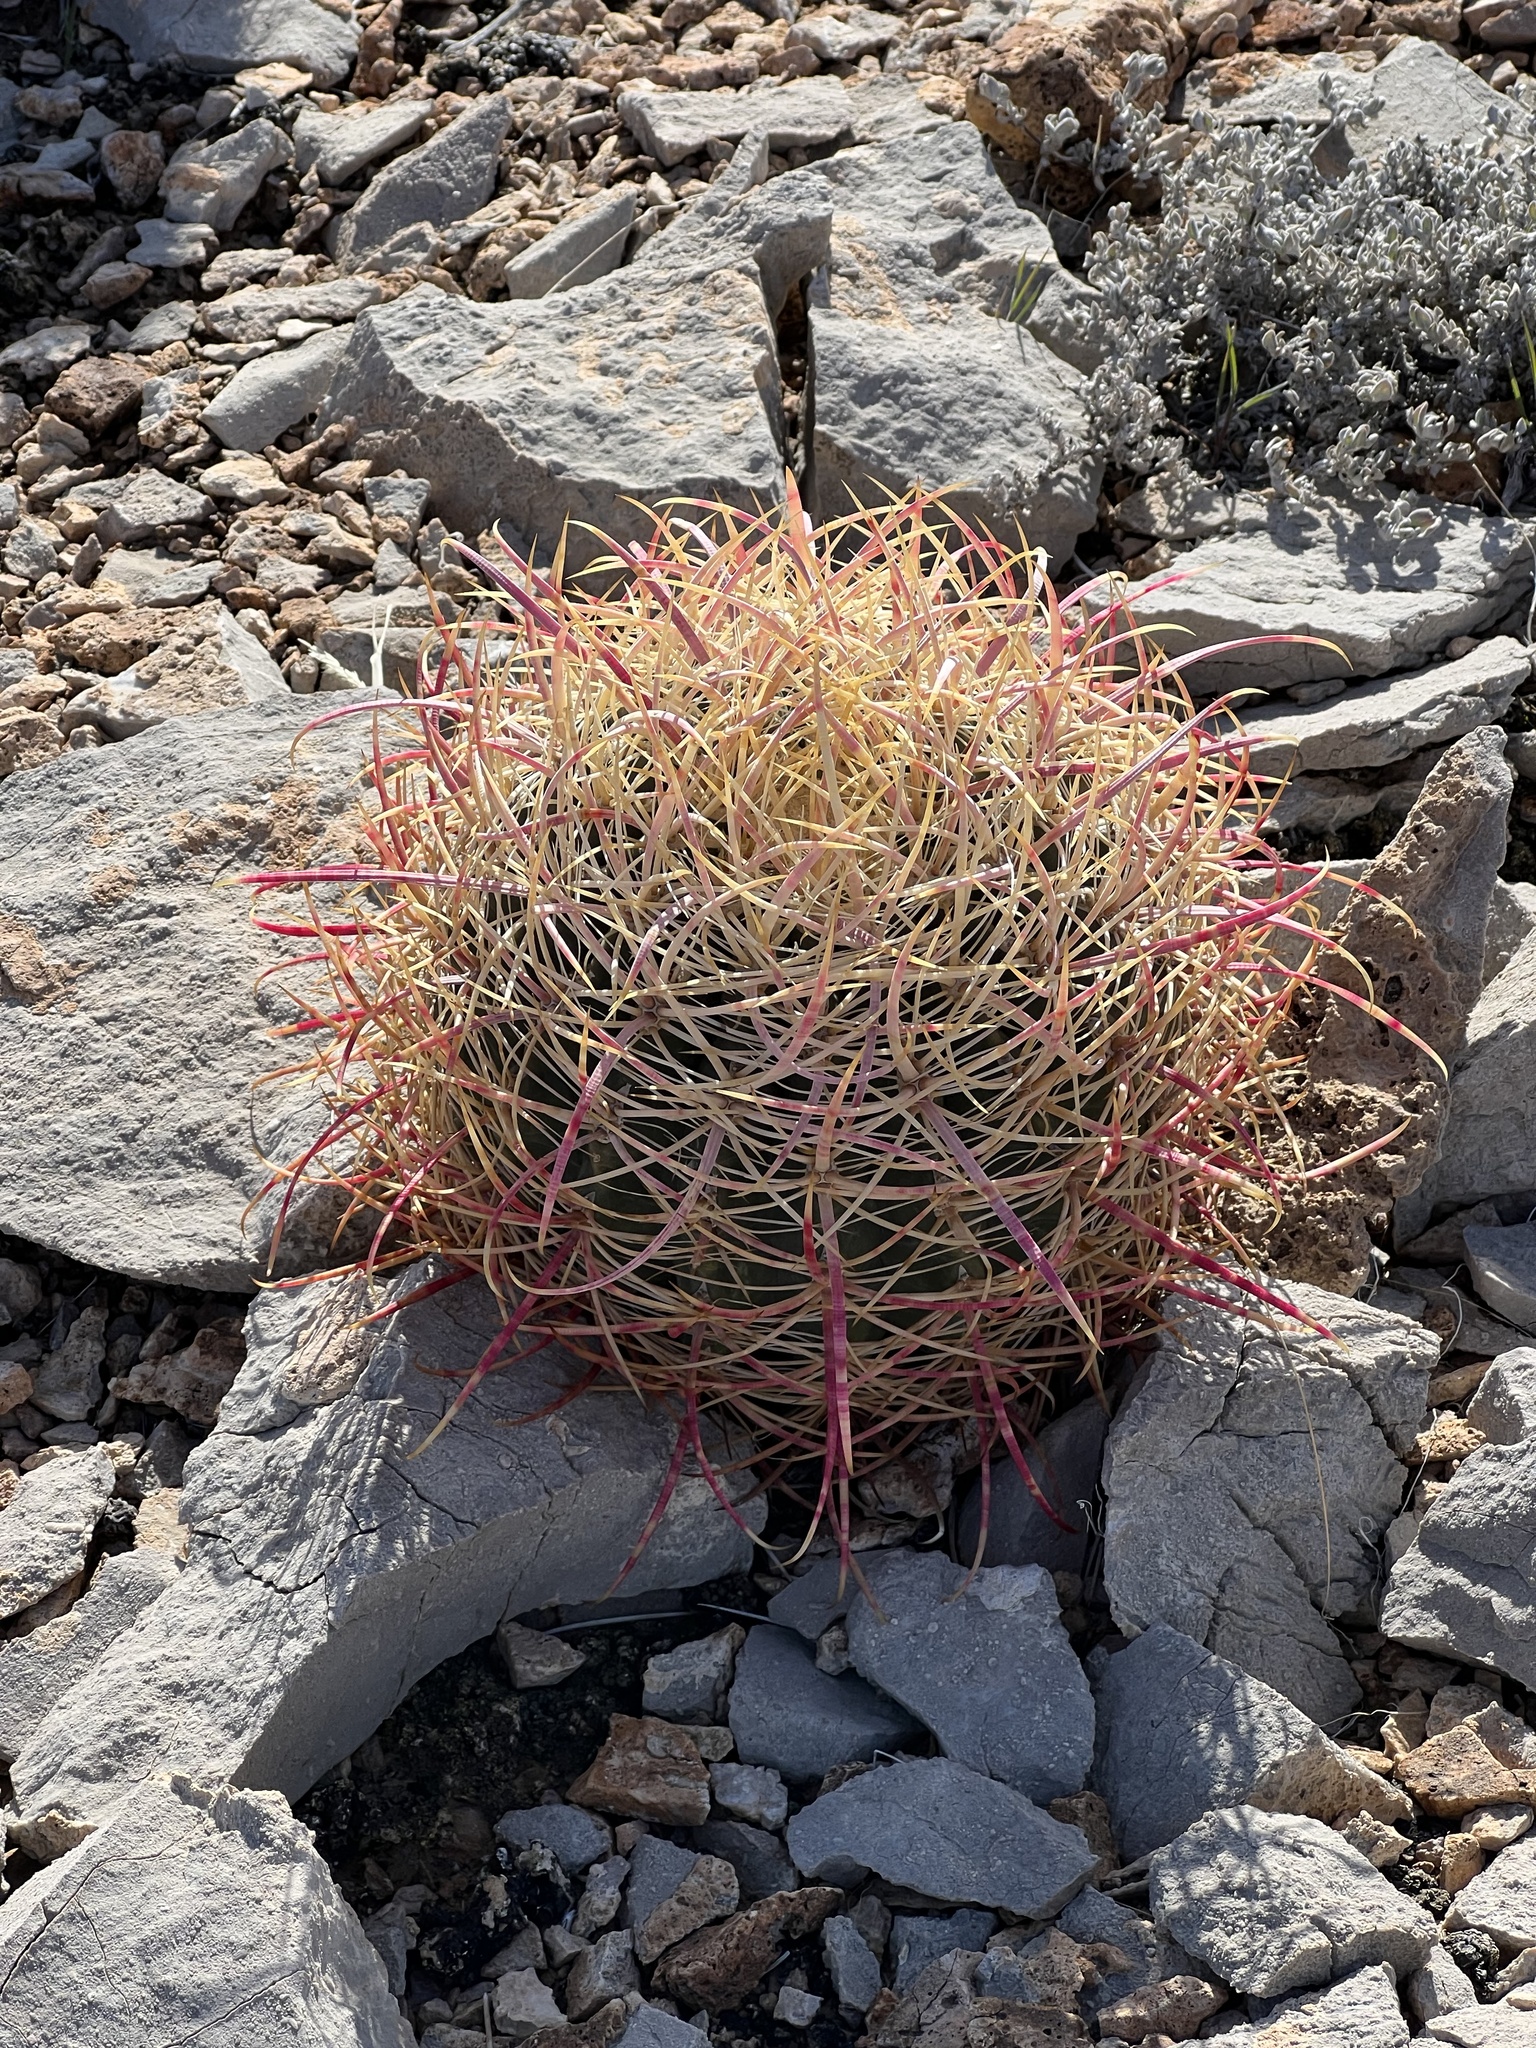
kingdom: Plantae
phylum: Tracheophyta
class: Magnoliopsida
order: Caryophyllales
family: Cactaceae
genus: Ferocactus
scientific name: Ferocactus cylindraceus
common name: California barrel cactus
